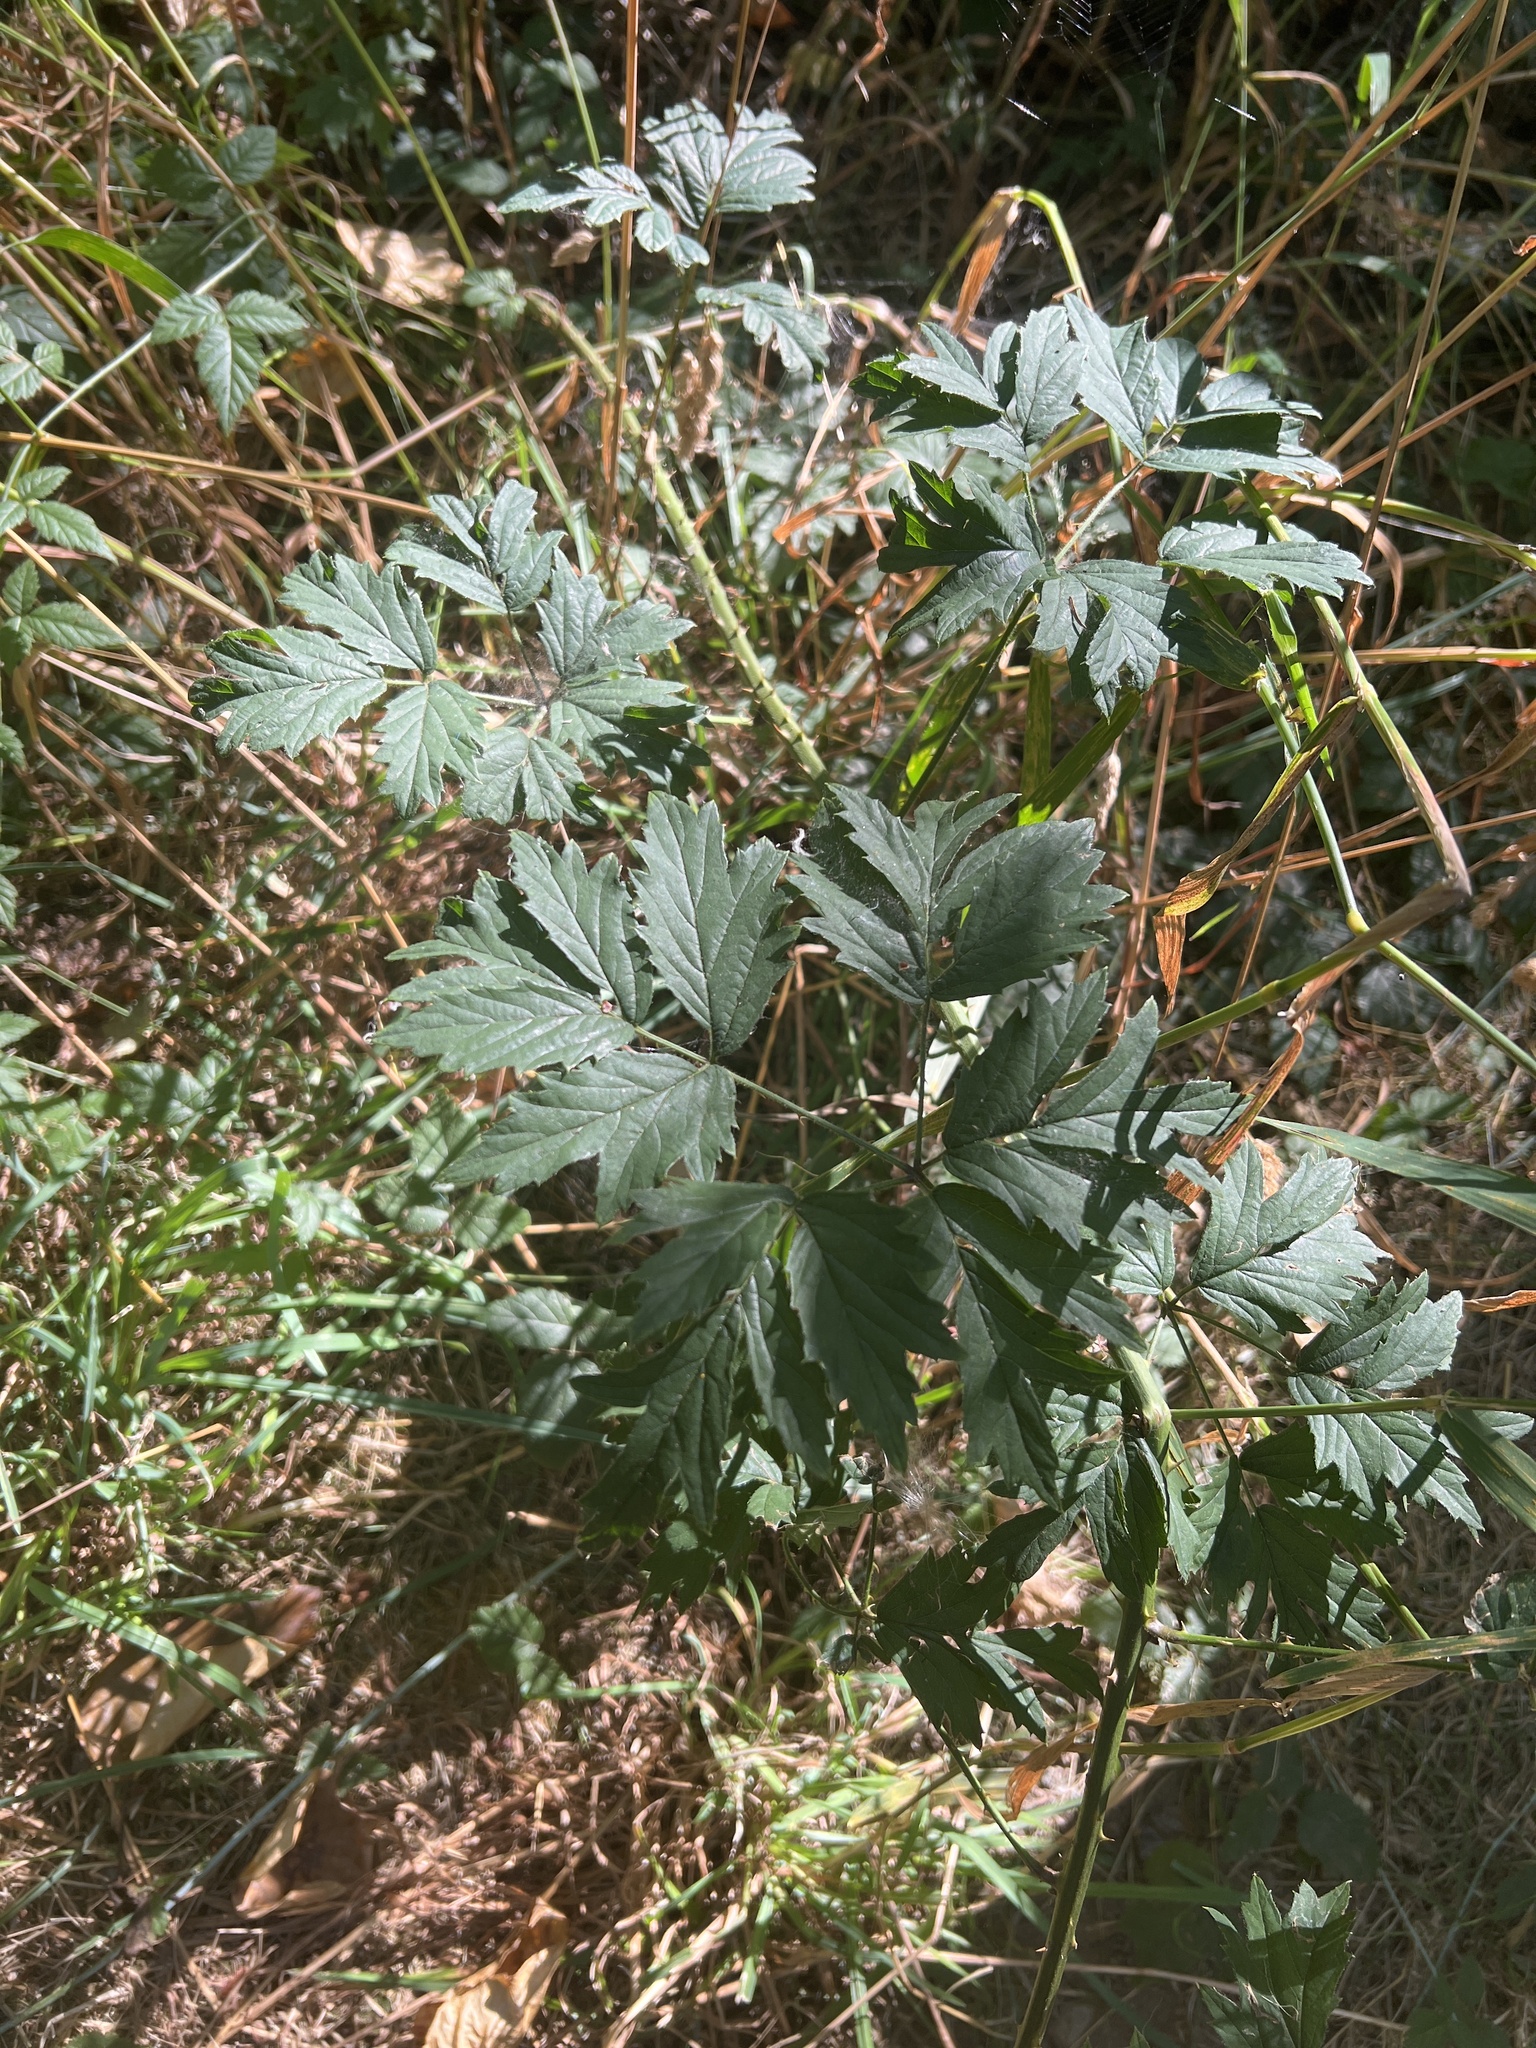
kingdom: Plantae
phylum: Tracheophyta
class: Magnoliopsida
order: Rosales
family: Rosaceae
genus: Rubus
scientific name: Rubus laciniatus
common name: Evergreen blackberry
